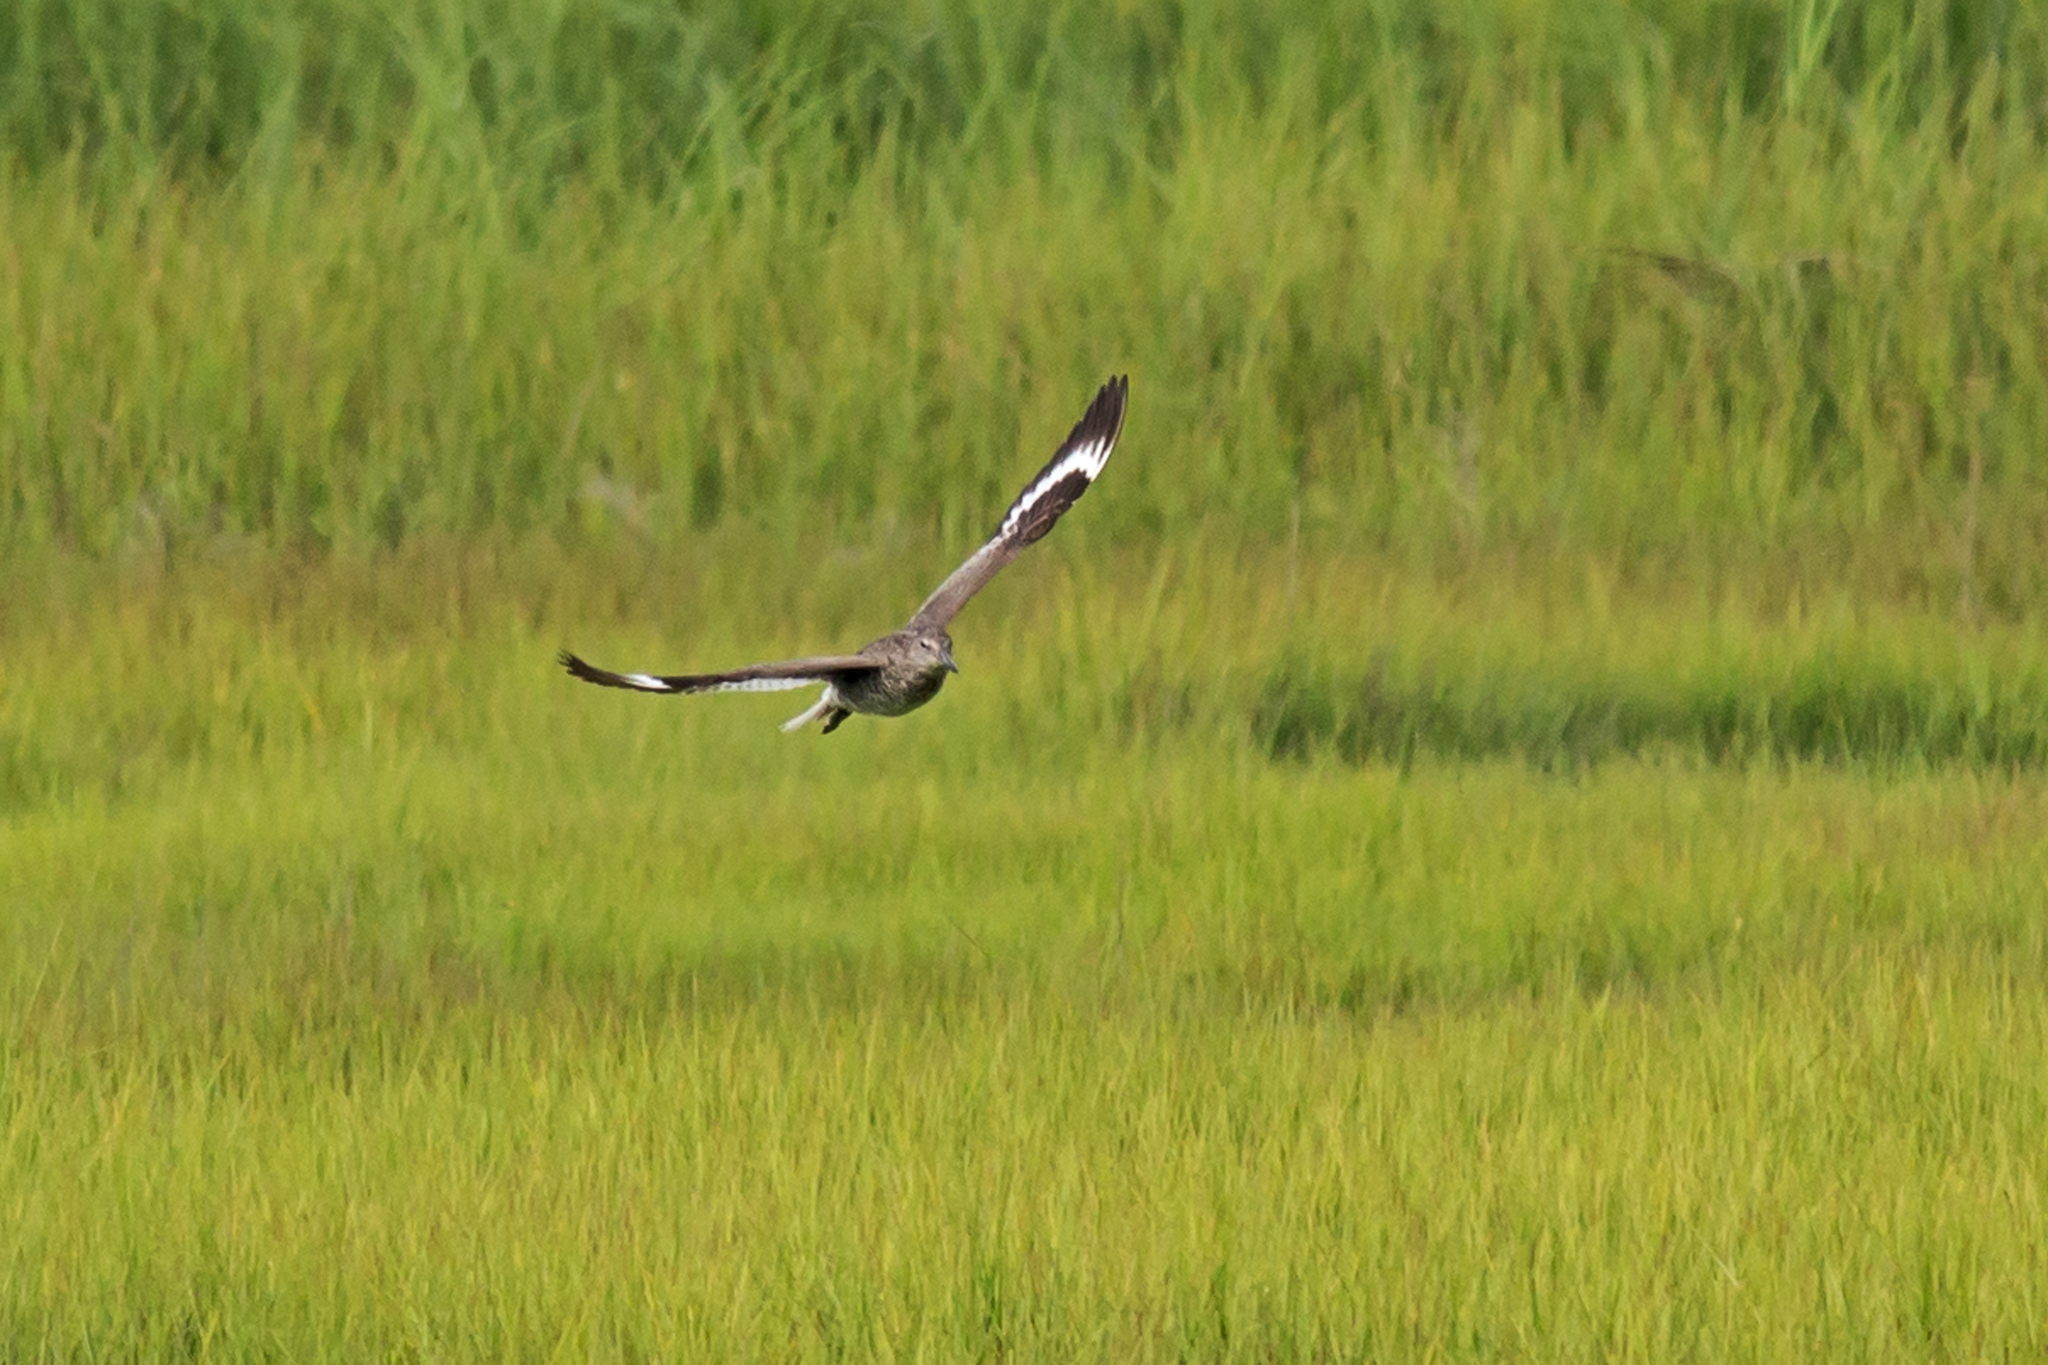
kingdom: Animalia
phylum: Chordata
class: Aves
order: Charadriiformes
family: Scolopacidae
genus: Tringa
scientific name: Tringa semipalmata
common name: Willet
